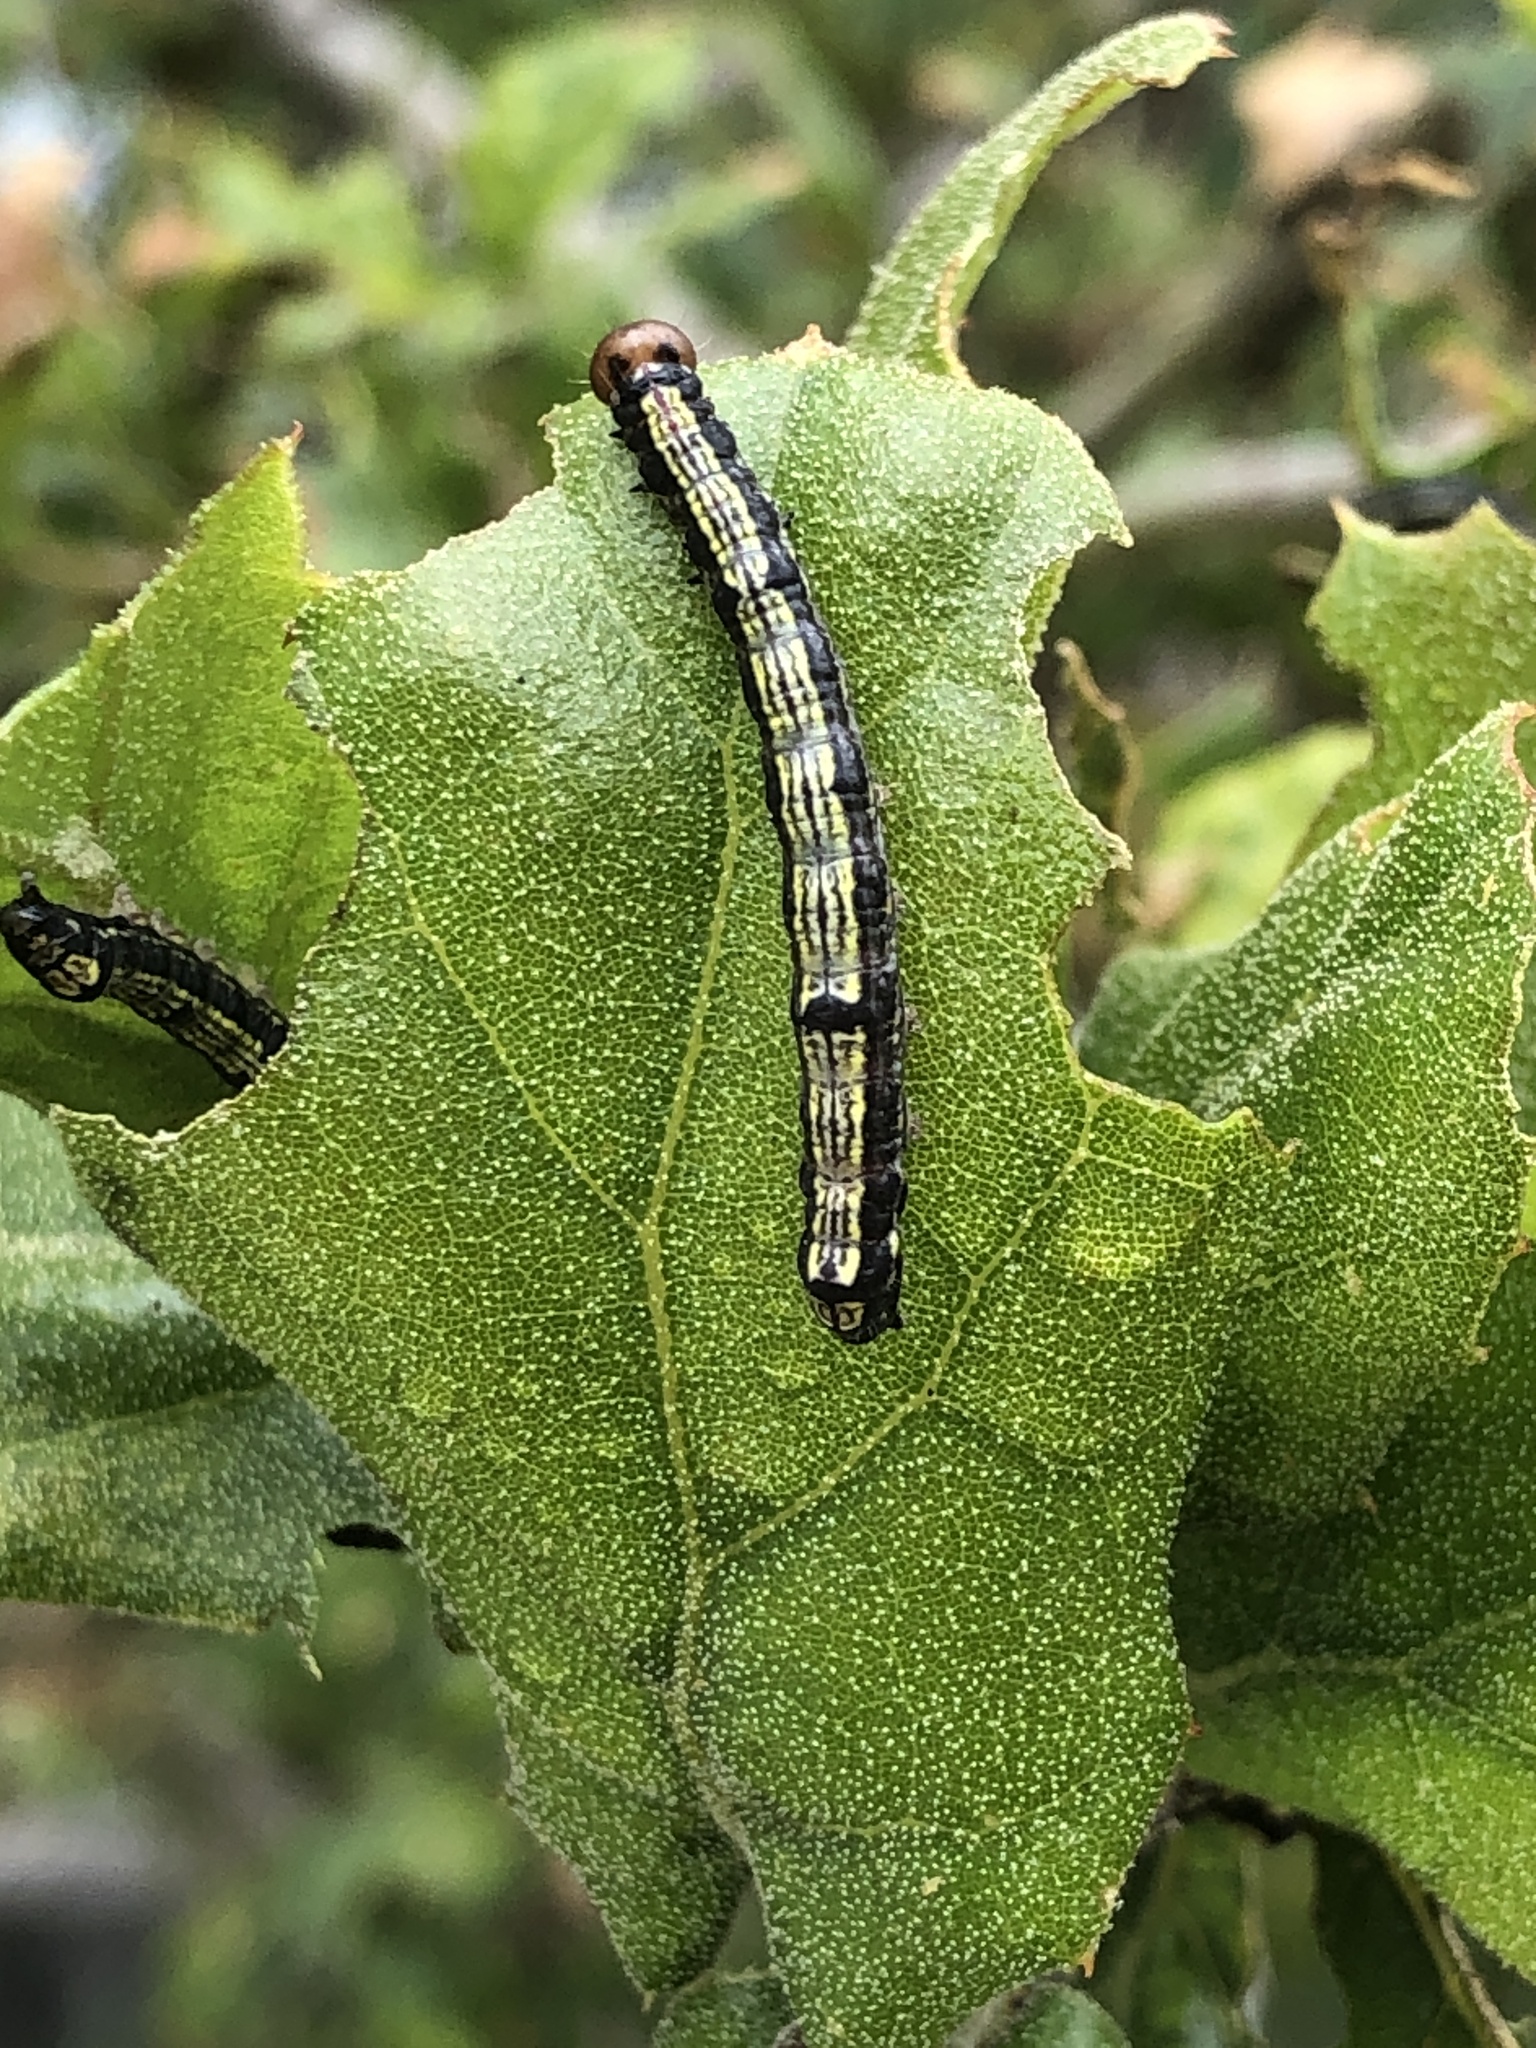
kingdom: Animalia
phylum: Arthropoda
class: Insecta
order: Lepidoptera
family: Notodontidae
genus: Phryganidia
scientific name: Phryganidia californica
